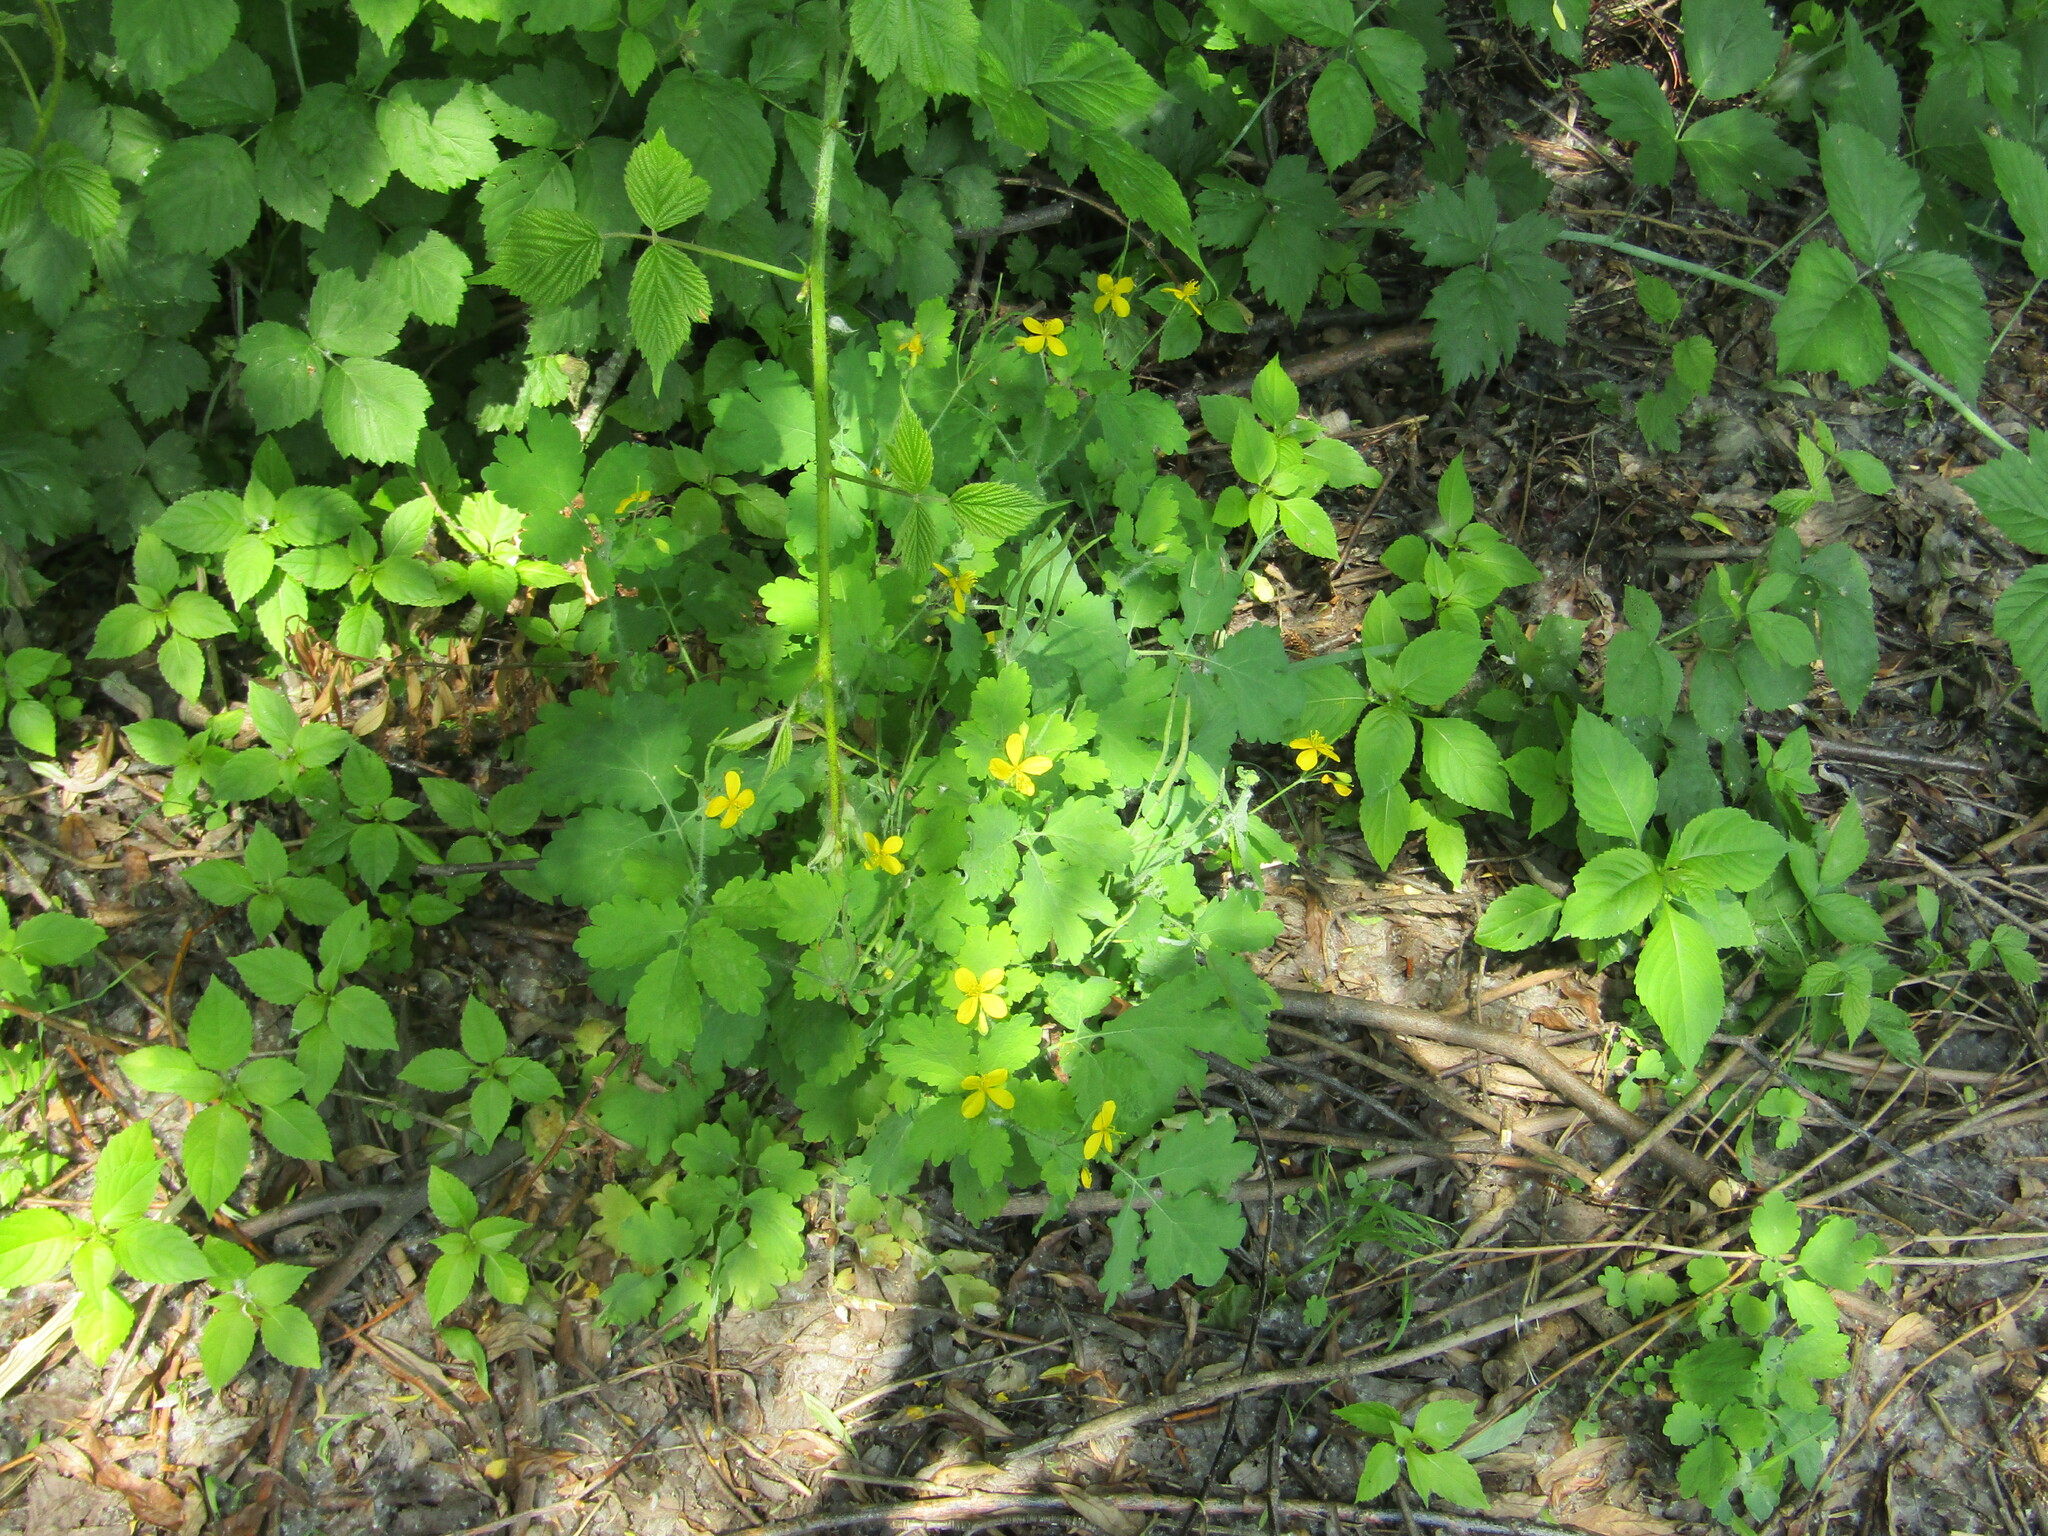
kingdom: Plantae
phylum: Tracheophyta
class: Magnoliopsida
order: Ranunculales
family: Papaveraceae
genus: Chelidonium
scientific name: Chelidonium majus
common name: Greater celandine
